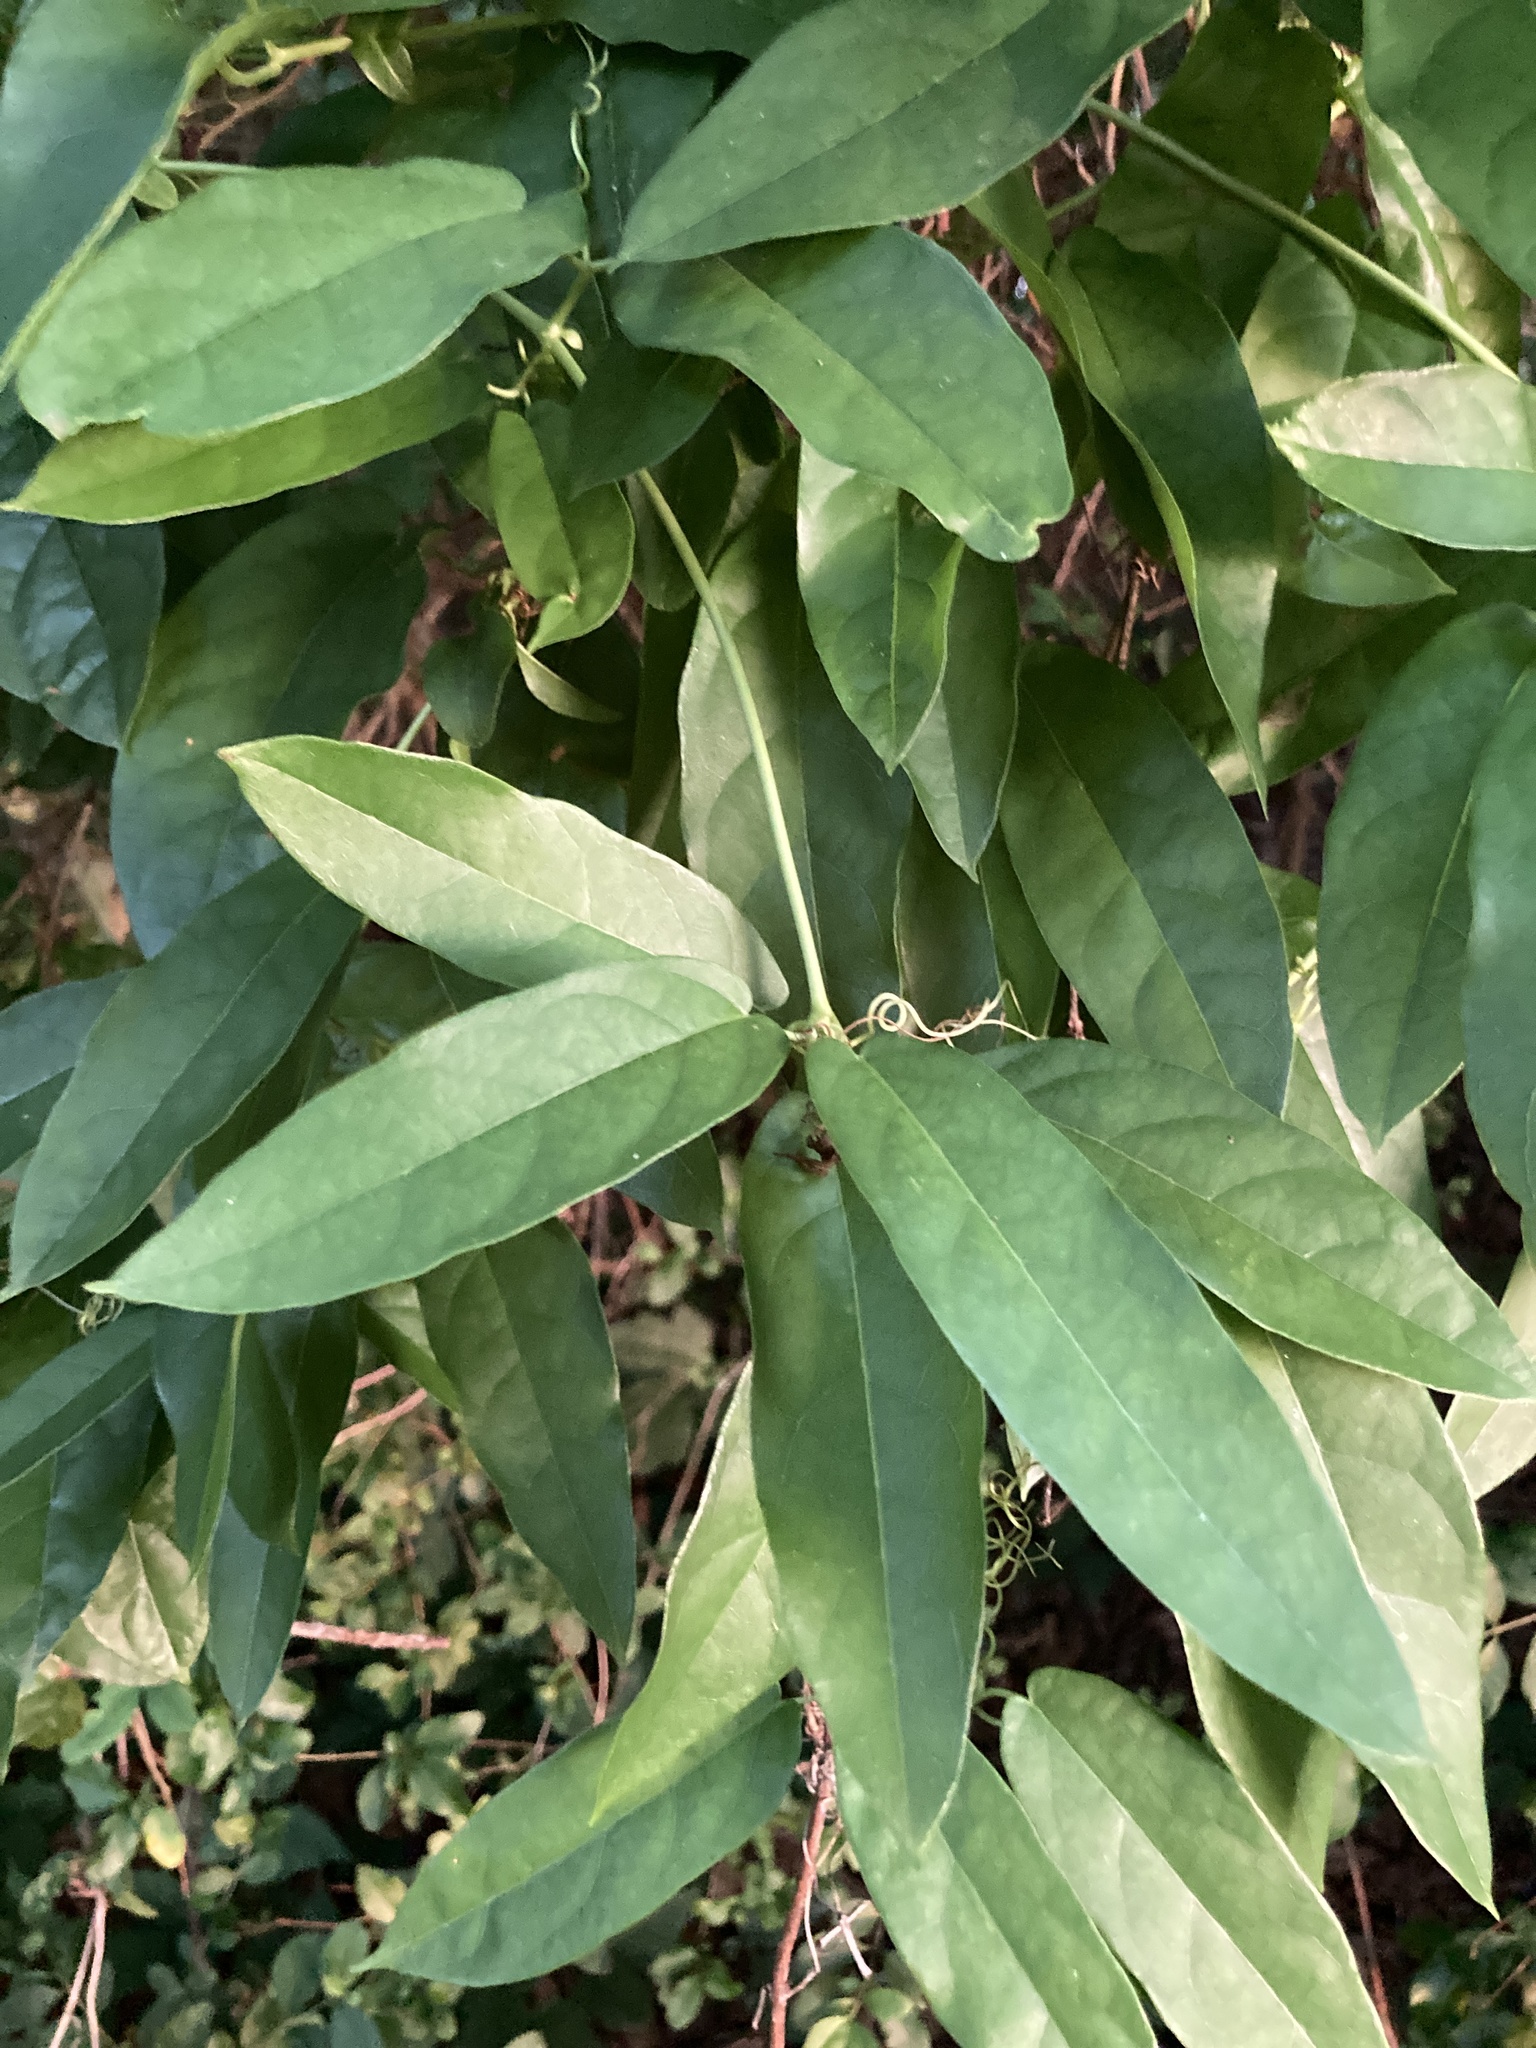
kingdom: Plantae
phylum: Tracheophyta
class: Magnoliopsida
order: Lamiales
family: Bignoniaceae
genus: Bignonia
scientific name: Bignonia capreolata
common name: Crossvine
